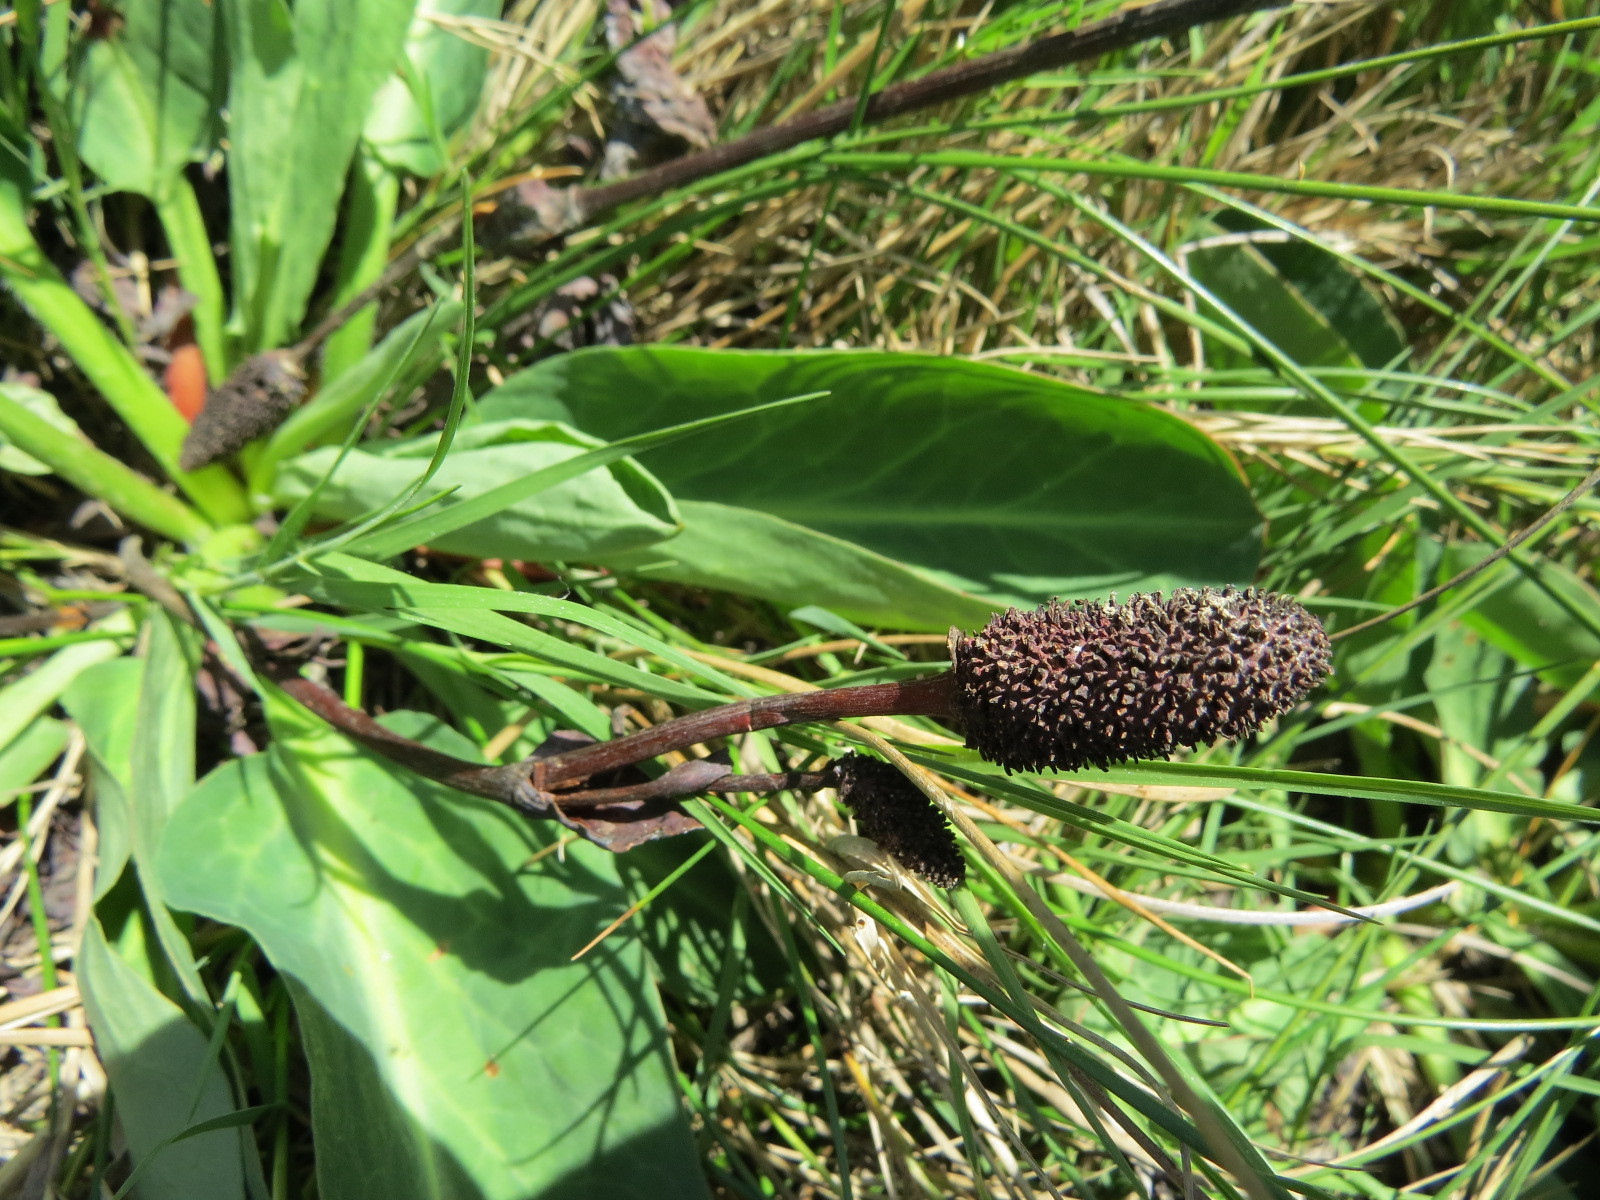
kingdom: Plantae
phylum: Tracheophyta
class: Magnoliopsida
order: Piperales
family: Saururaceae
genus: Anemopsis
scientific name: Anemopsis californica
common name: Apache-beads
